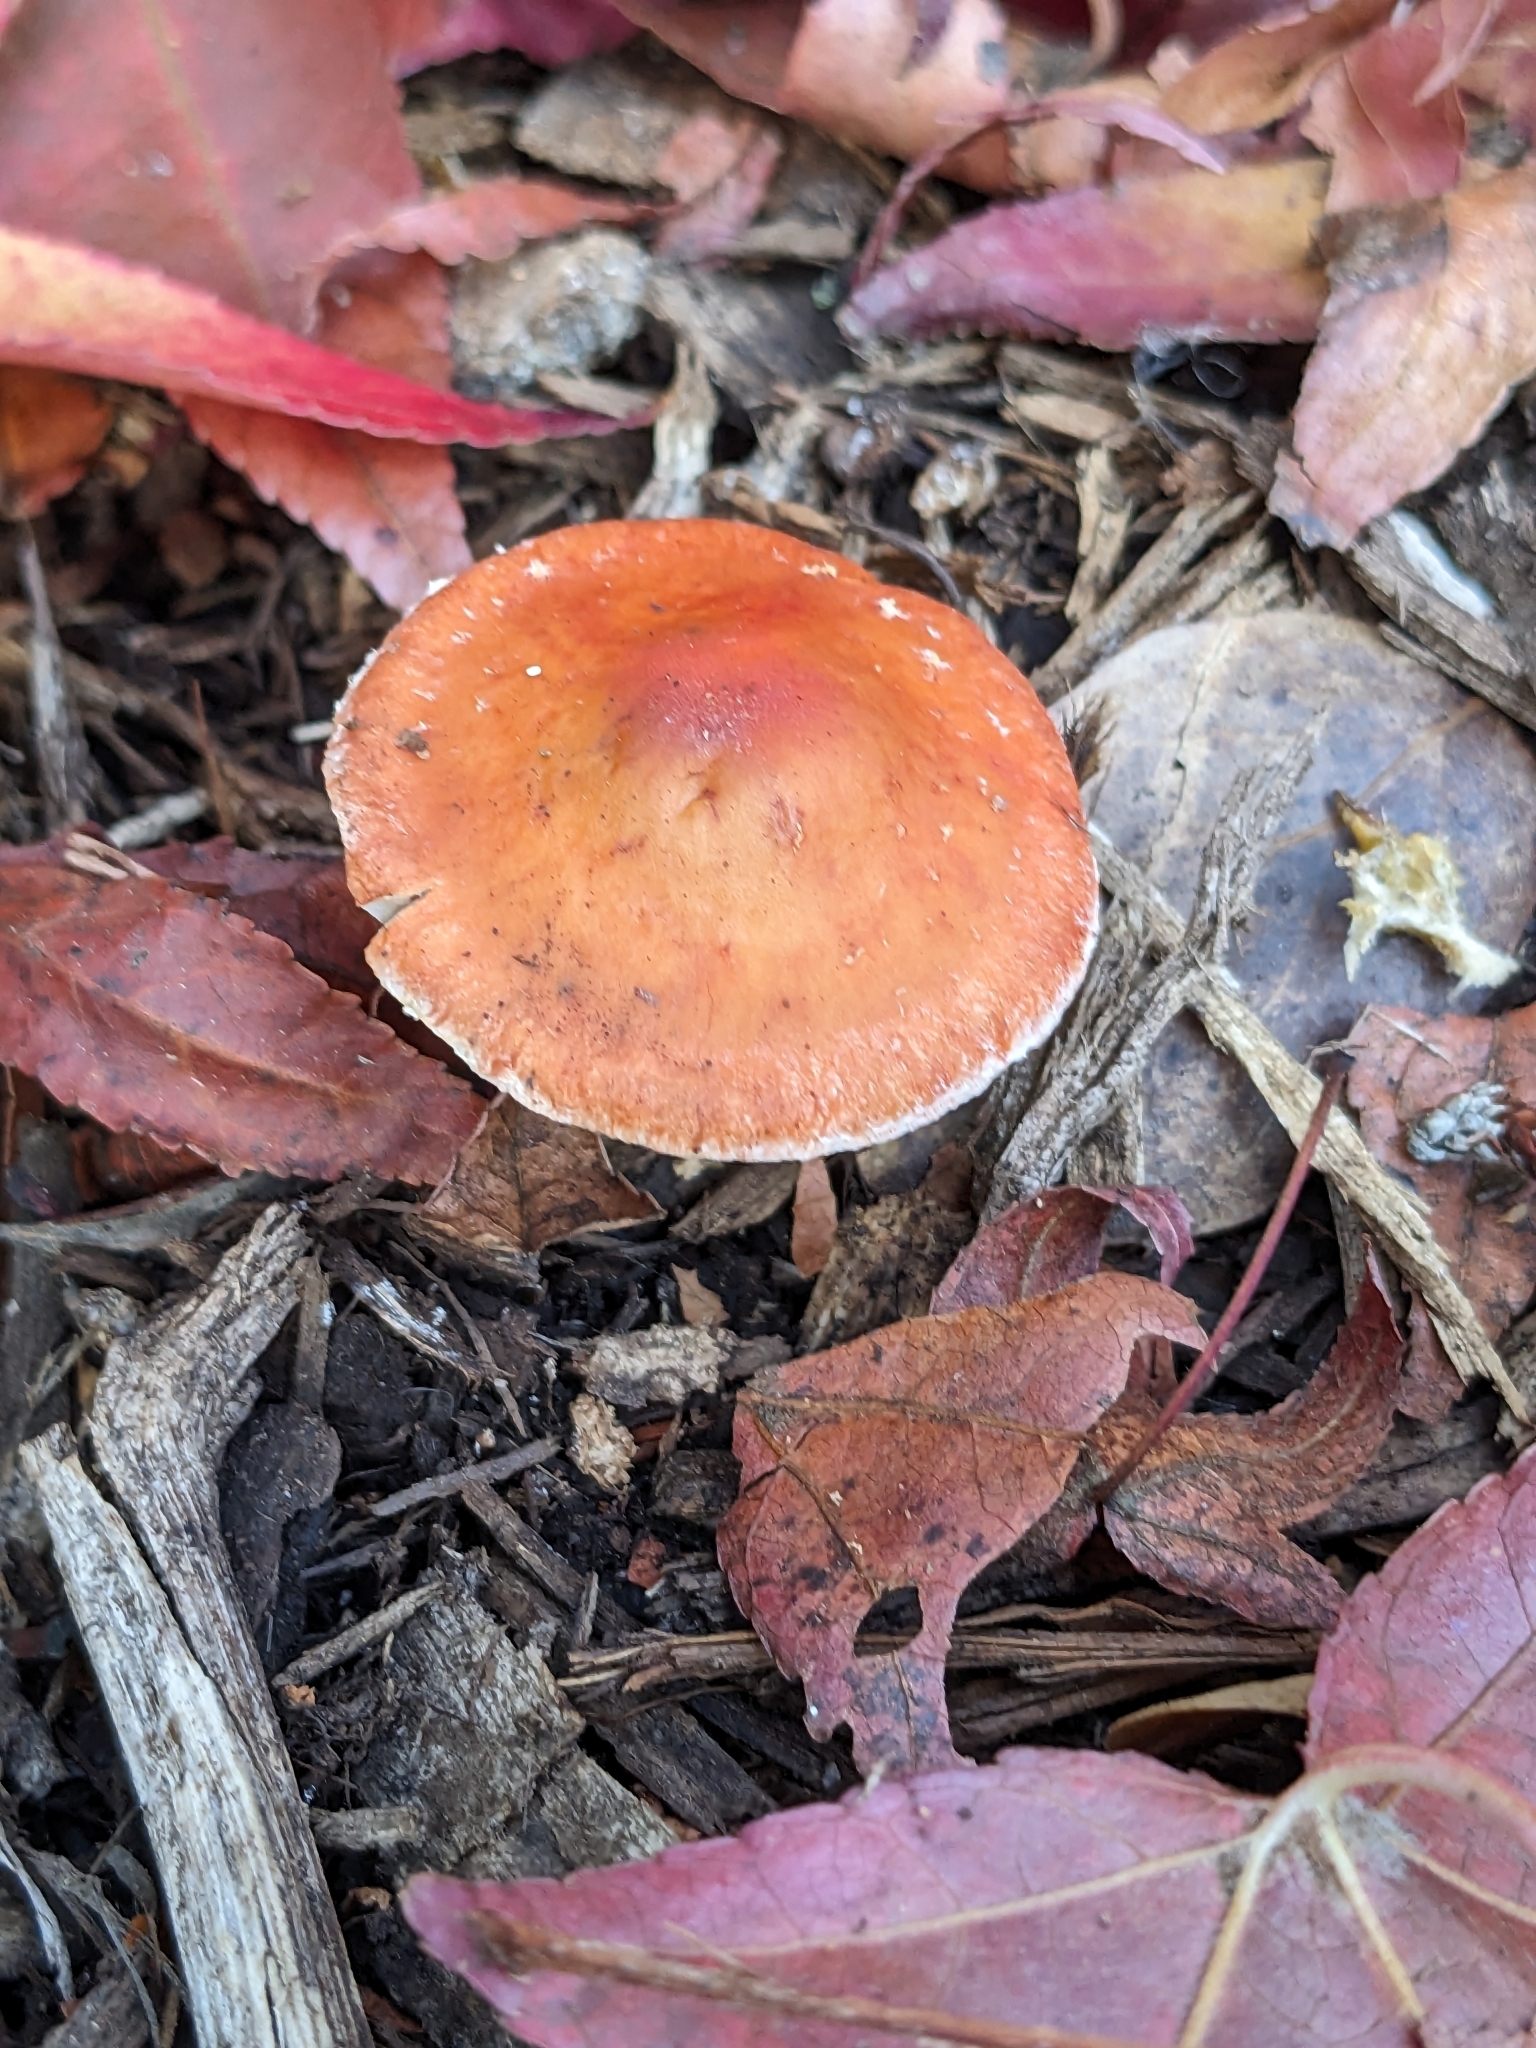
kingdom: Fungi
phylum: Basidiomycota
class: Agaricomycetes
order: Agaricales
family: Strophariaceae
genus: Leratiomyces
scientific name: Leratiomyces ceres
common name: Redlead roundhead
